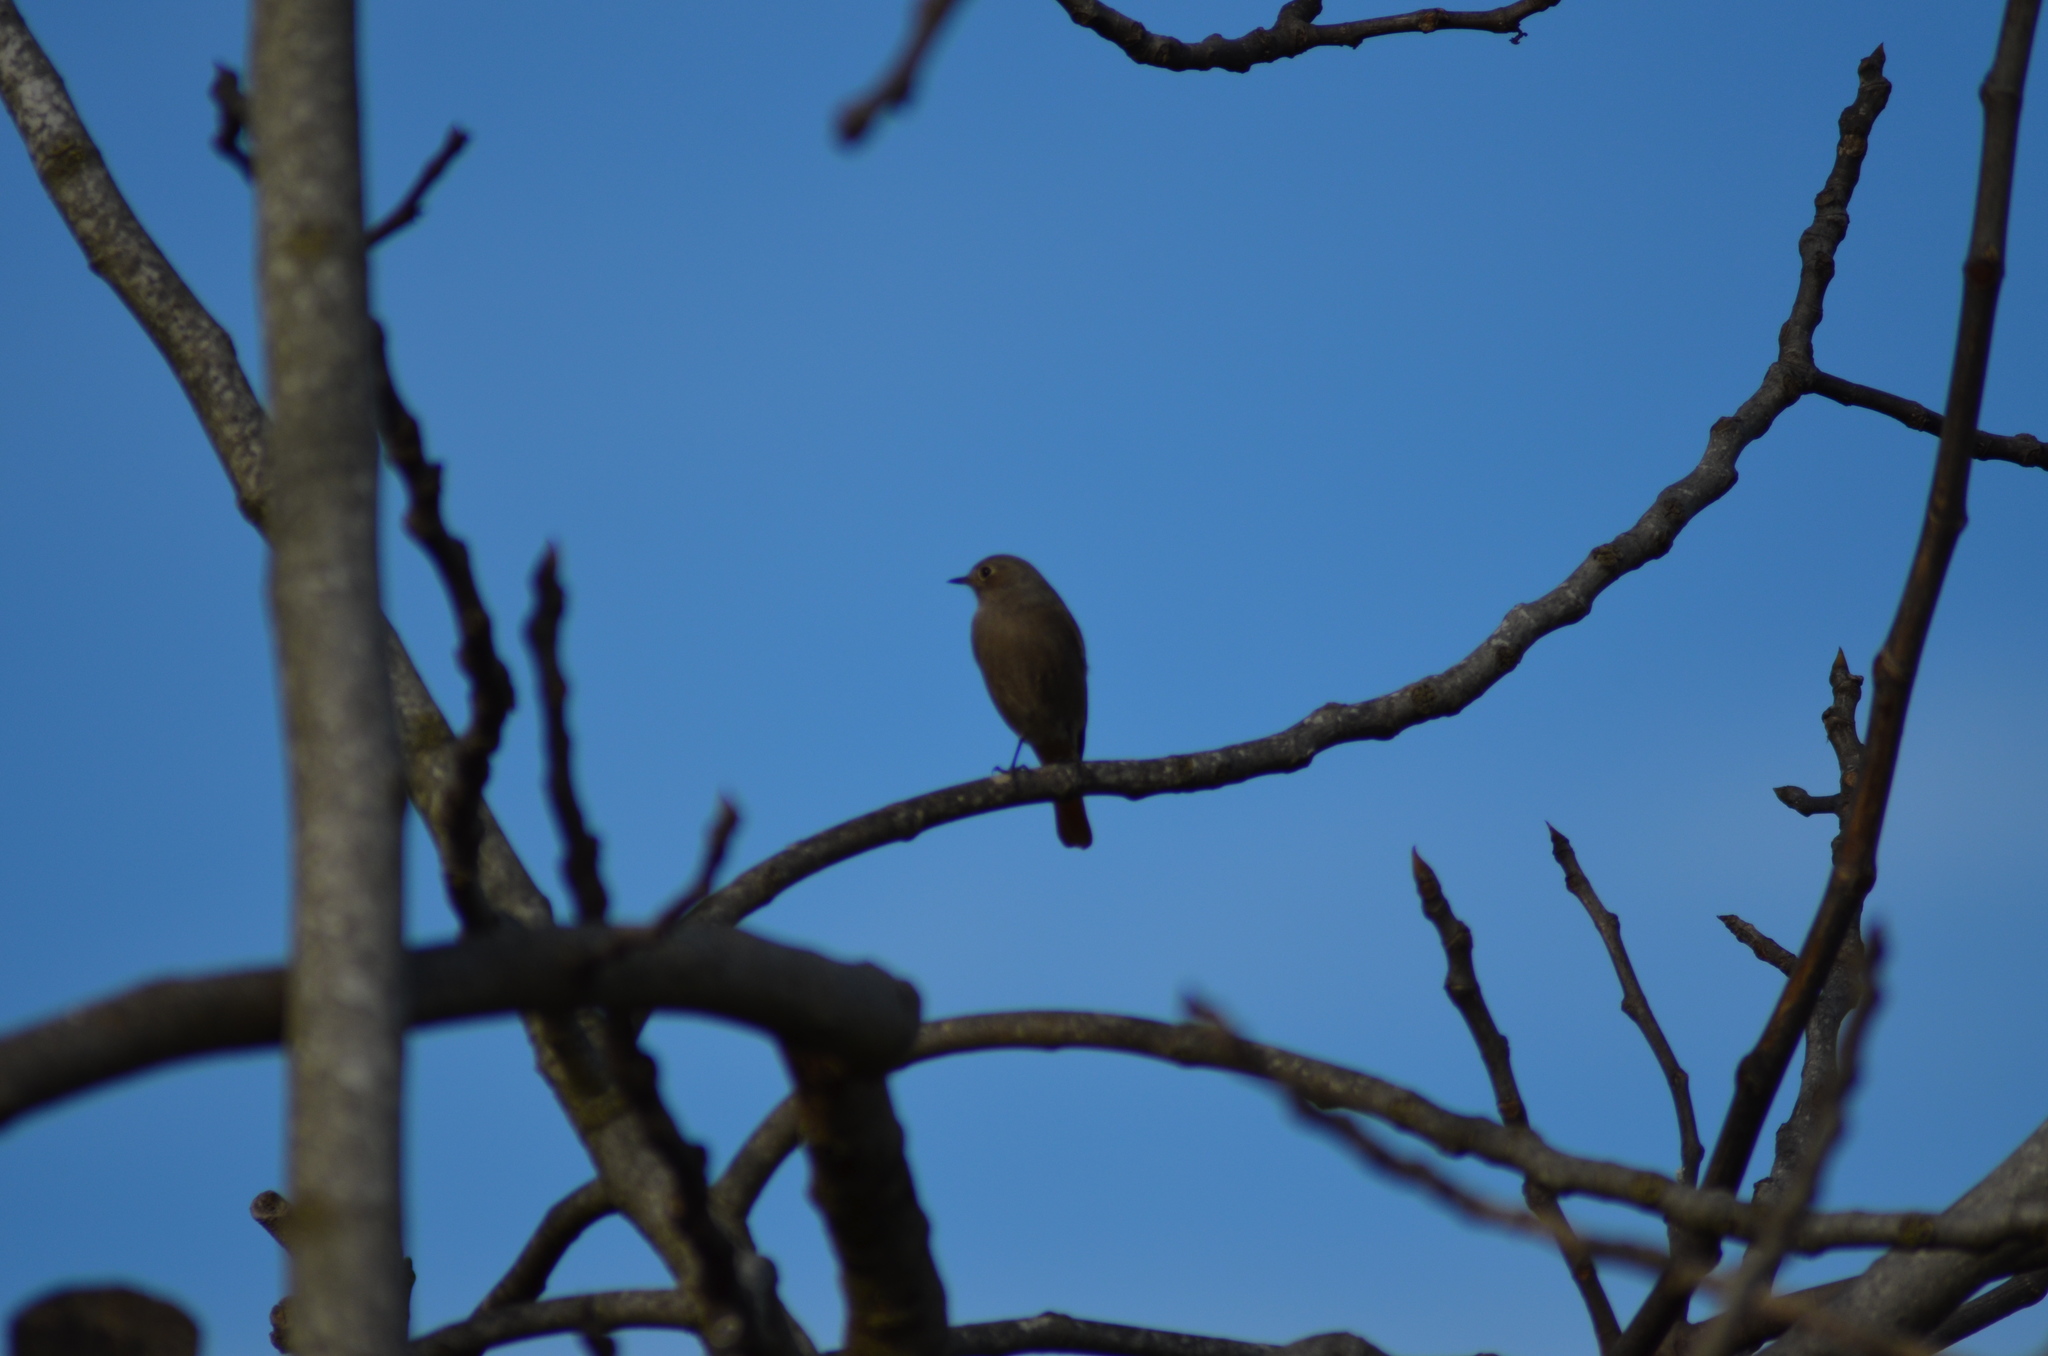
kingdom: Animalia
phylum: Chordata
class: Aves
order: Passeriformes
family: Muscicapidae
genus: Phoenicurus
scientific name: Phoenicurus ochruros
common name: Black redstart
